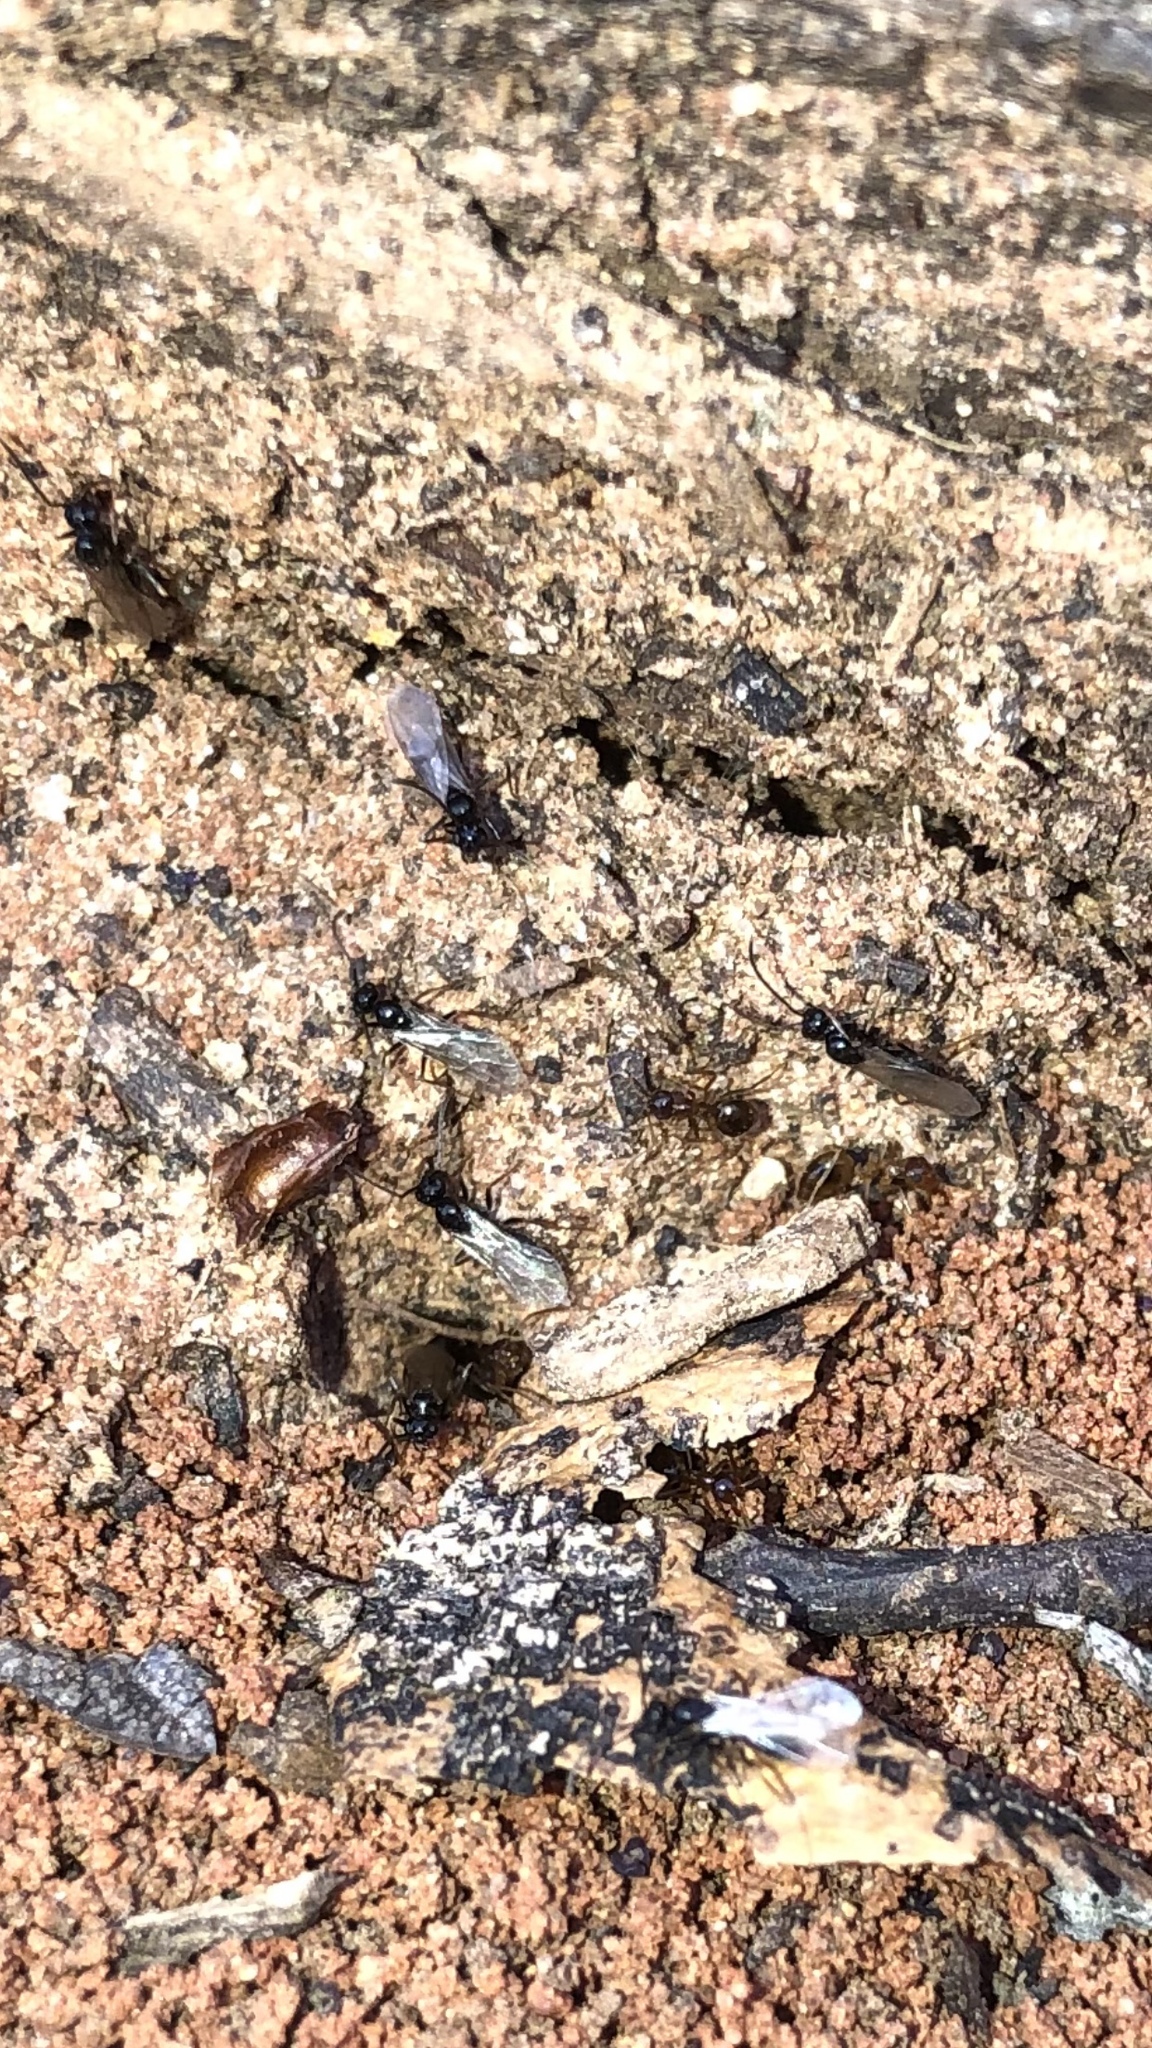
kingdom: Animalia
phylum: Arthropoda
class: Insecta
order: Hymenoptera
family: Formicidae
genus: Prenolepis
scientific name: Prenolepis imparis
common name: Small honey ant
